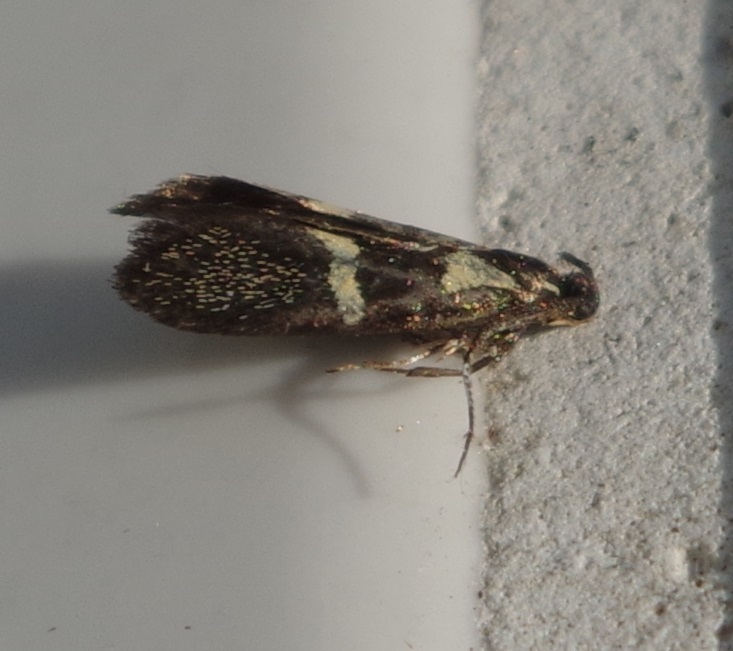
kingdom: Animalia
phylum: Arthropoda
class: Insecta
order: Lepidoptera
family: Oecophoridae
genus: Dafa
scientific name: Dafa oliviella
